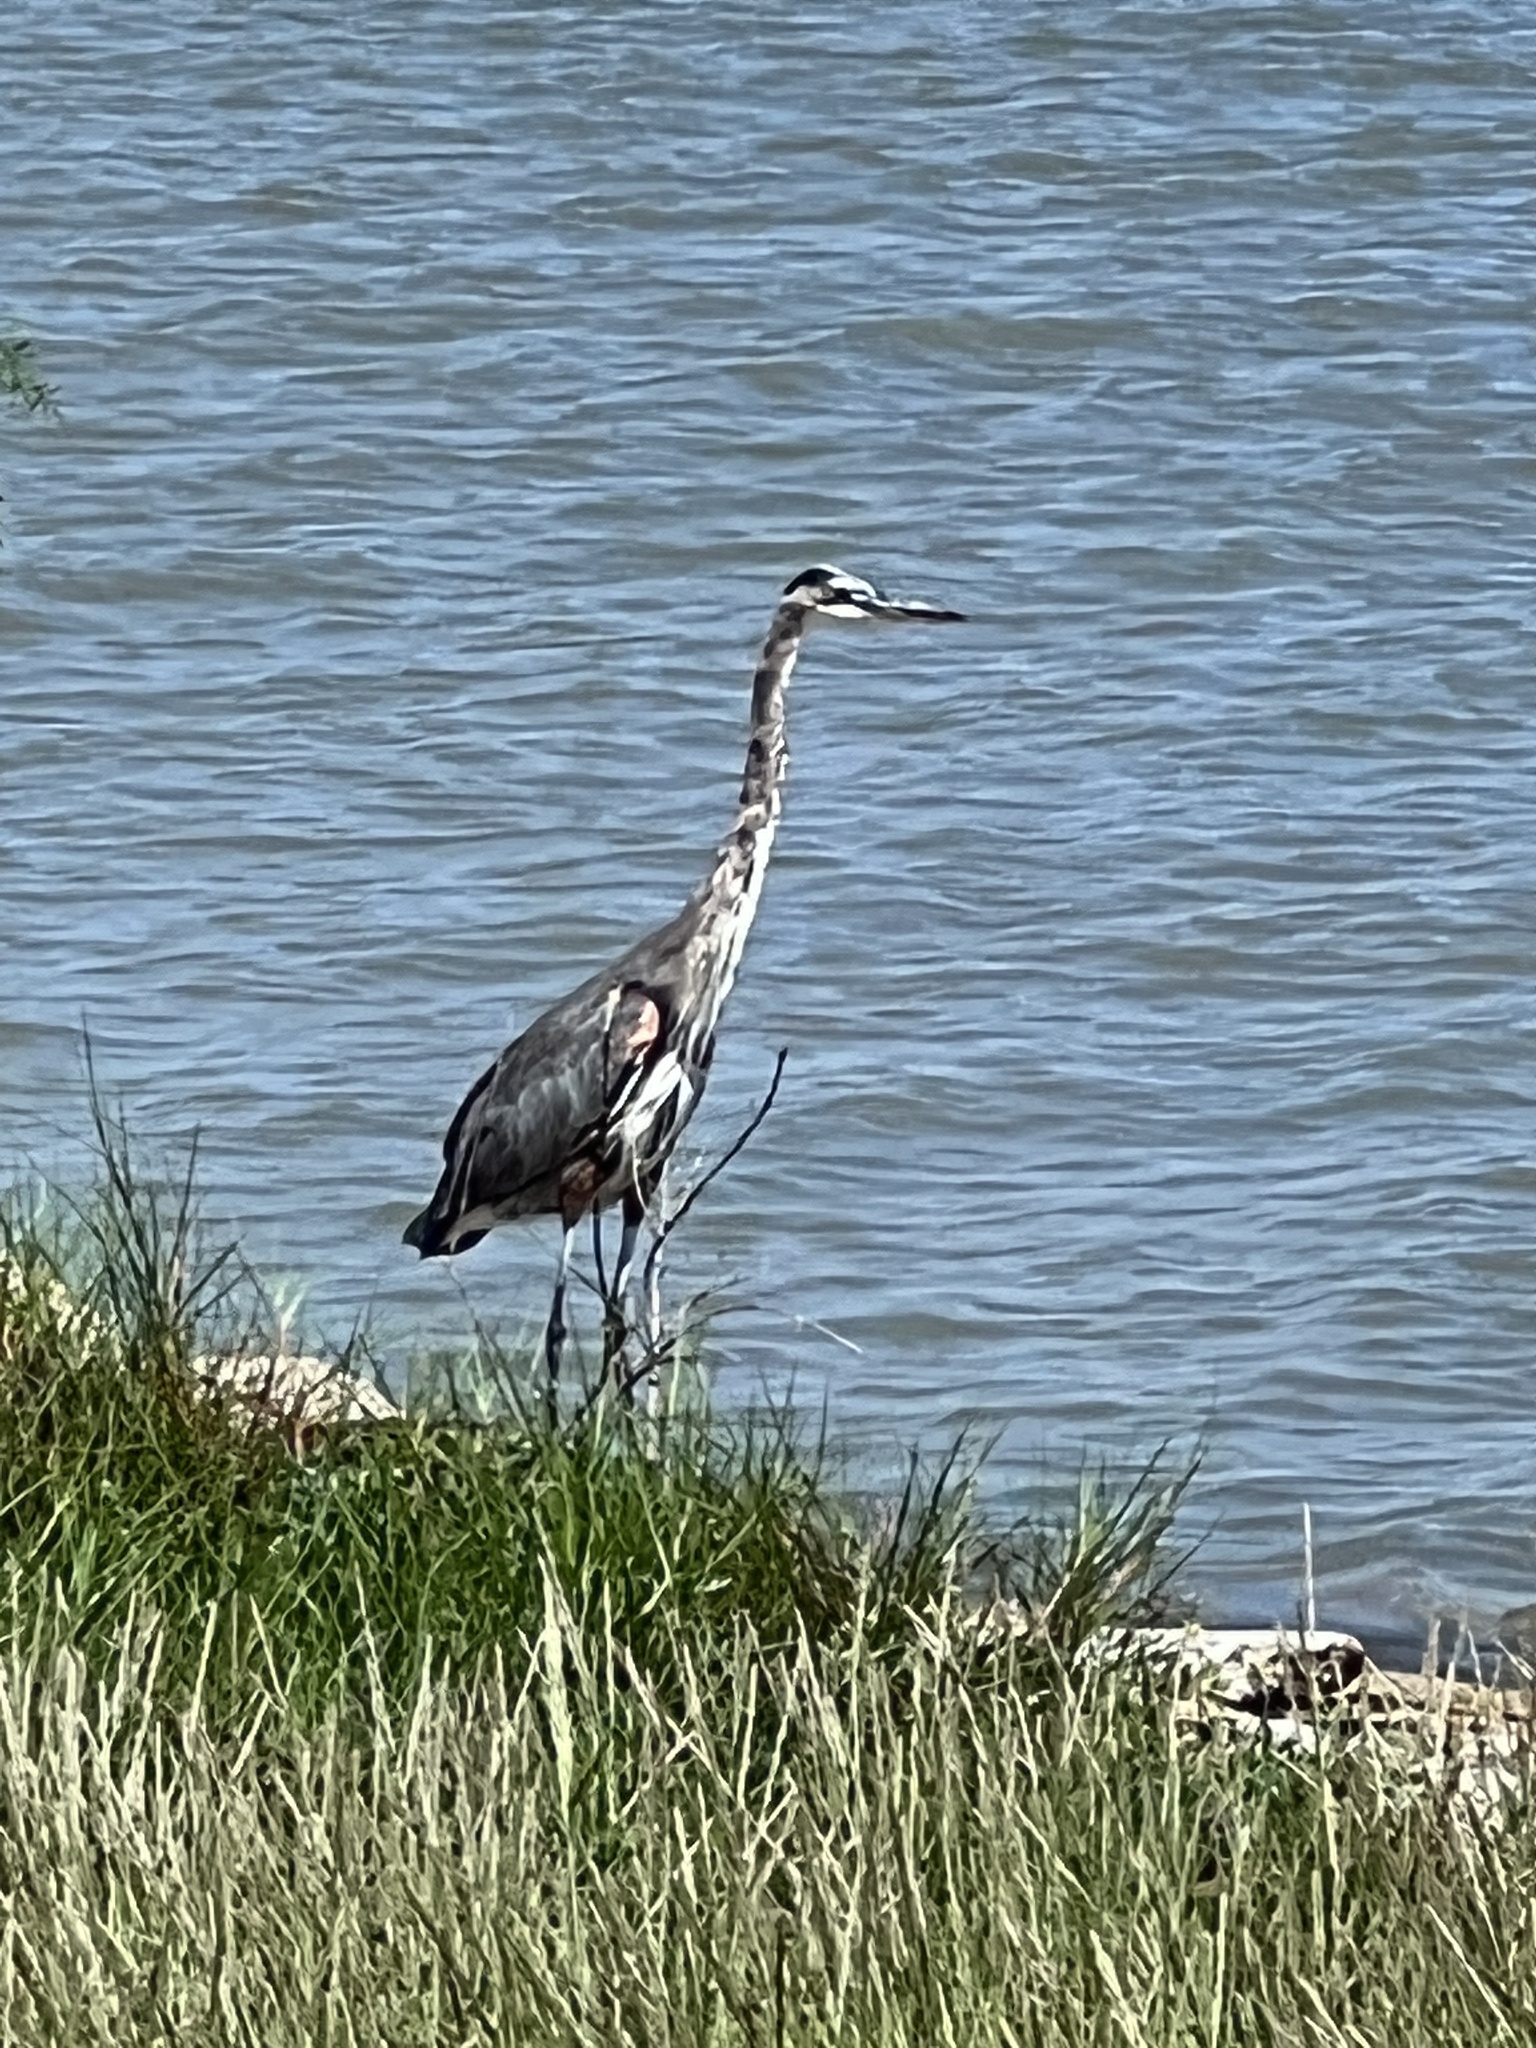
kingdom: Animalia
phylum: Chordata
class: Aves
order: Pelecaniformes
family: Ardeidae
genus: Ardea
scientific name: Ardea herodias
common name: Great blue heron
